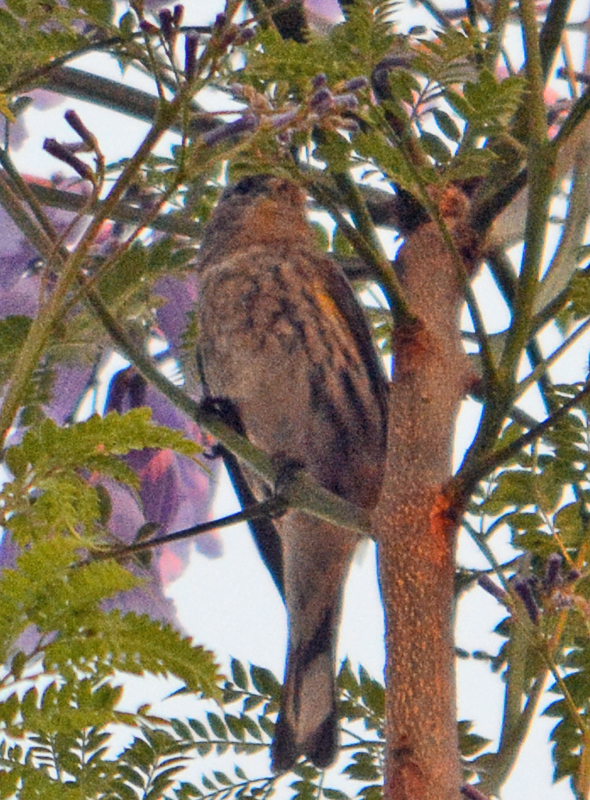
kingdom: Animalia
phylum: Chordata
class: Aves
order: Passeriformes
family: Parulidae
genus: Setophaga
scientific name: Setophaga coronata
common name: Myrtle warbler
